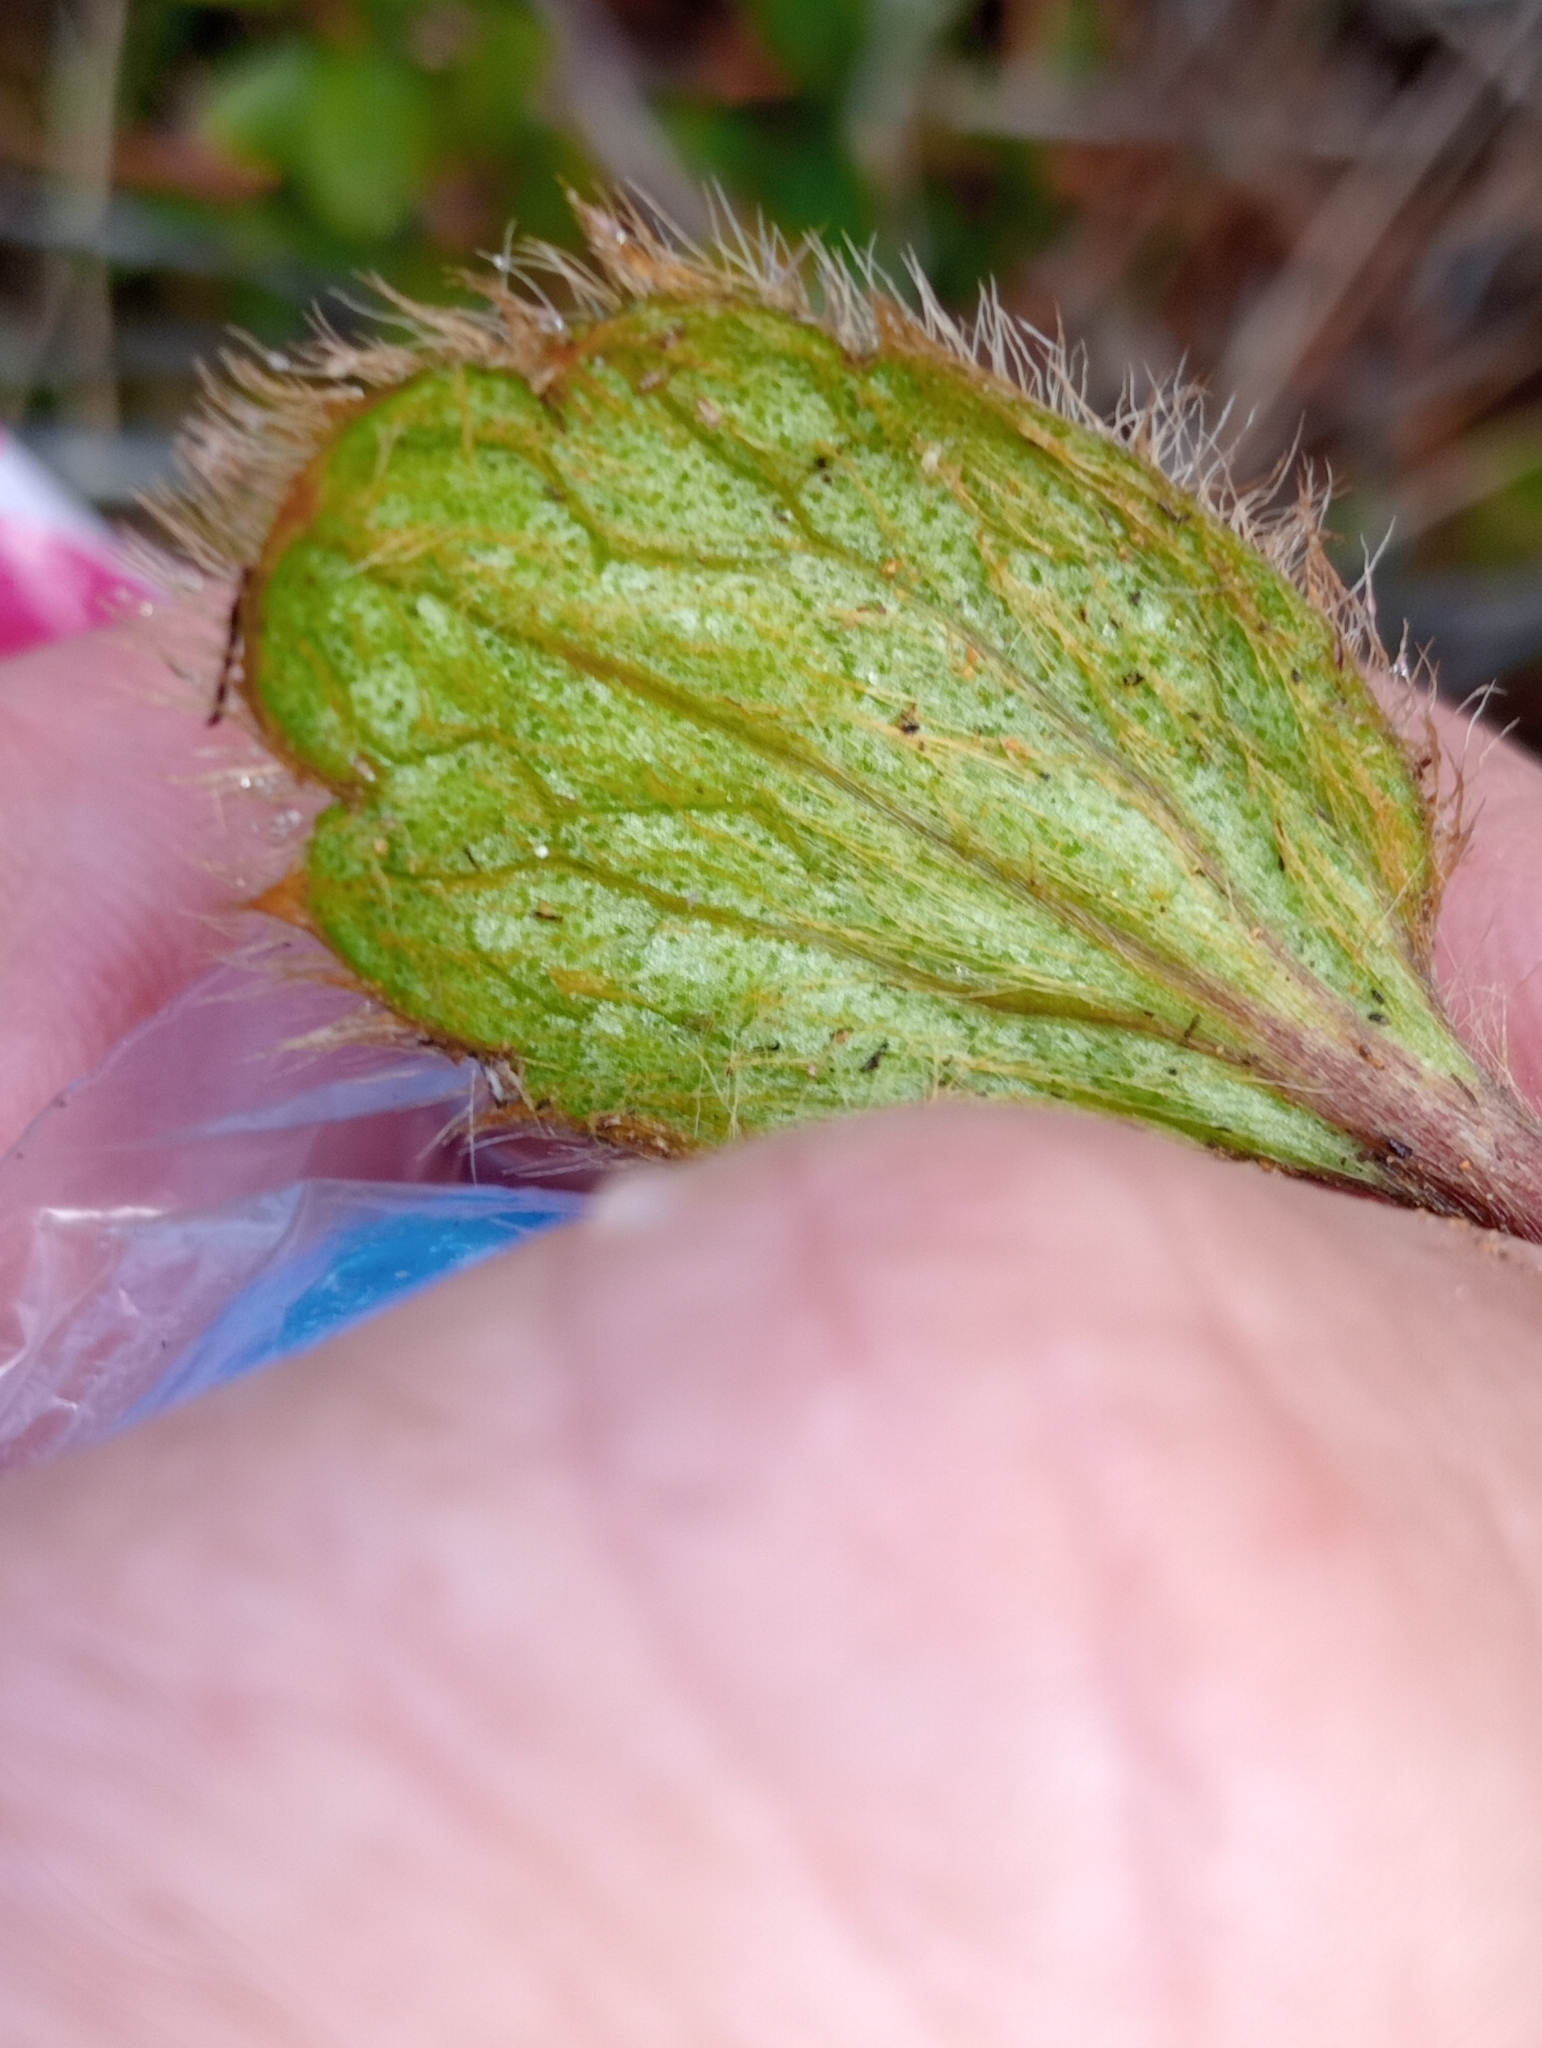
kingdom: Plantae
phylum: Tracheophyta
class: Magnoliopsida
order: Ranunculales
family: Ranunculaceae
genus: Ranunculus
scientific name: Ranunculus insignis
